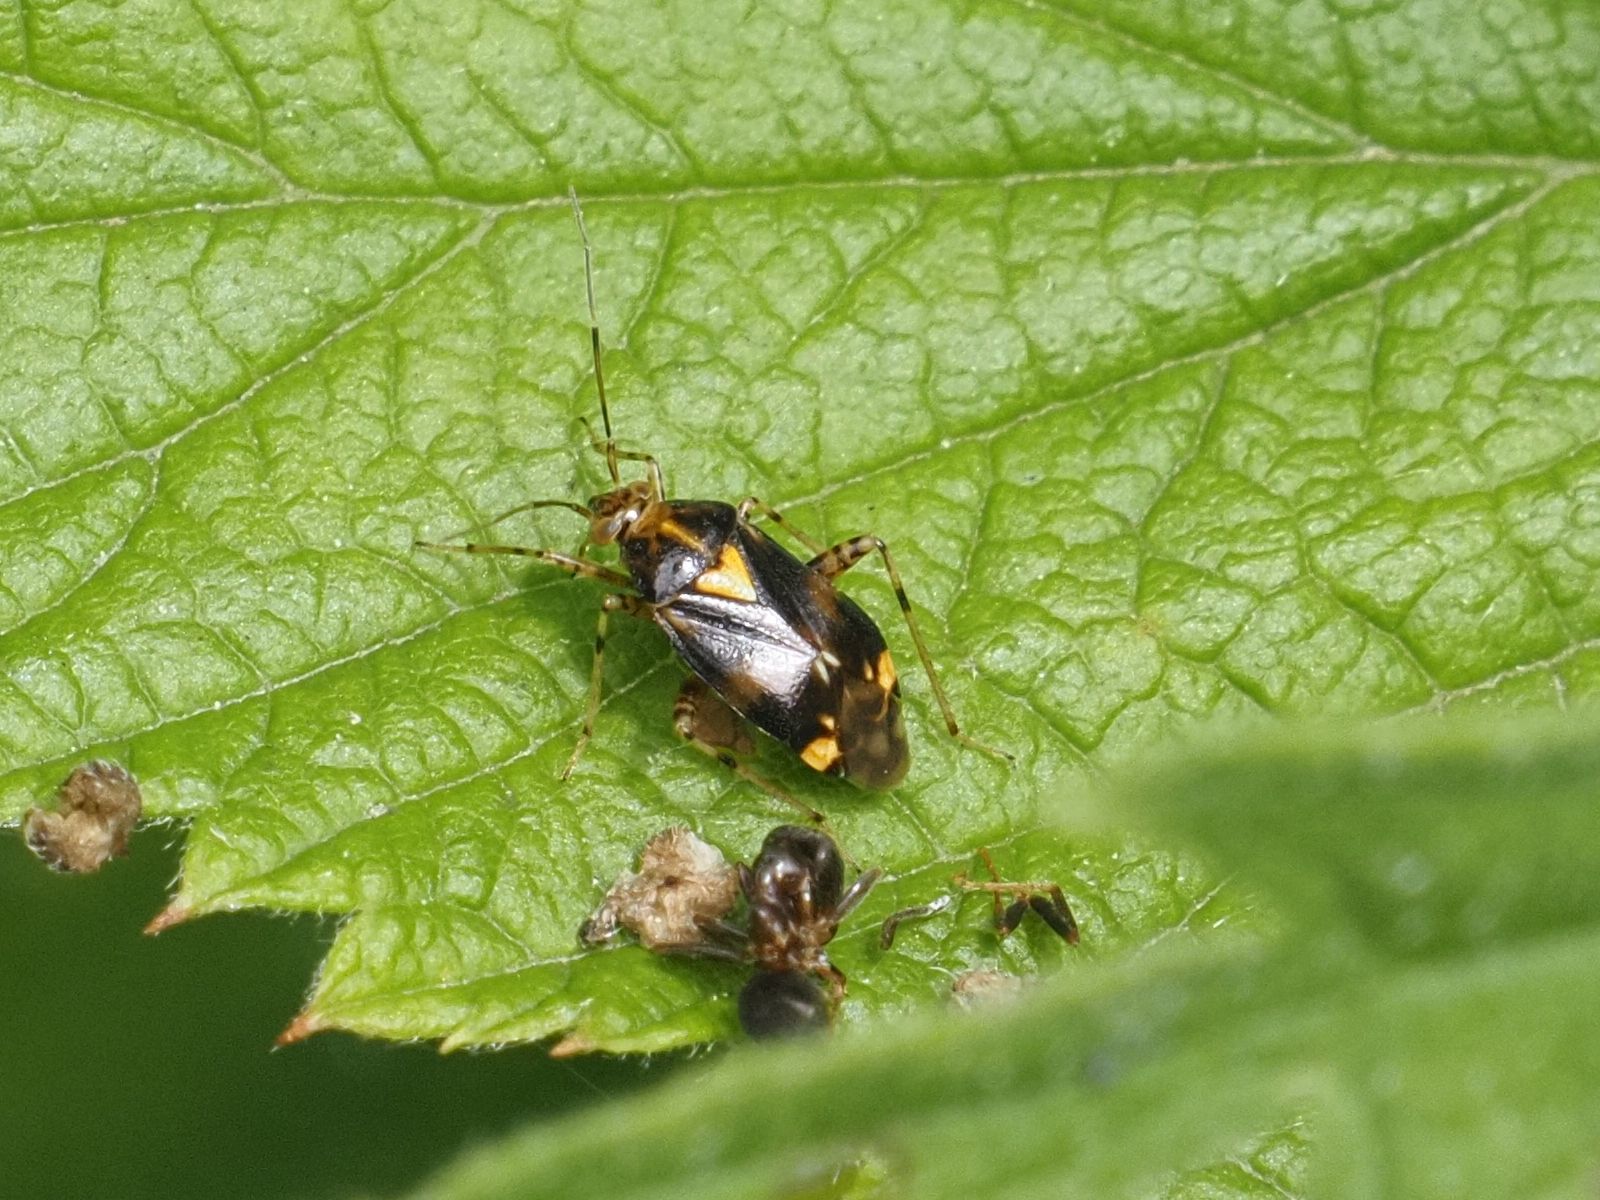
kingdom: Animalia
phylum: Arthropoda
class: Insecta
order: Hemiptera
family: Miridae
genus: Liocoris
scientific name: Liocoris tripustulatus
